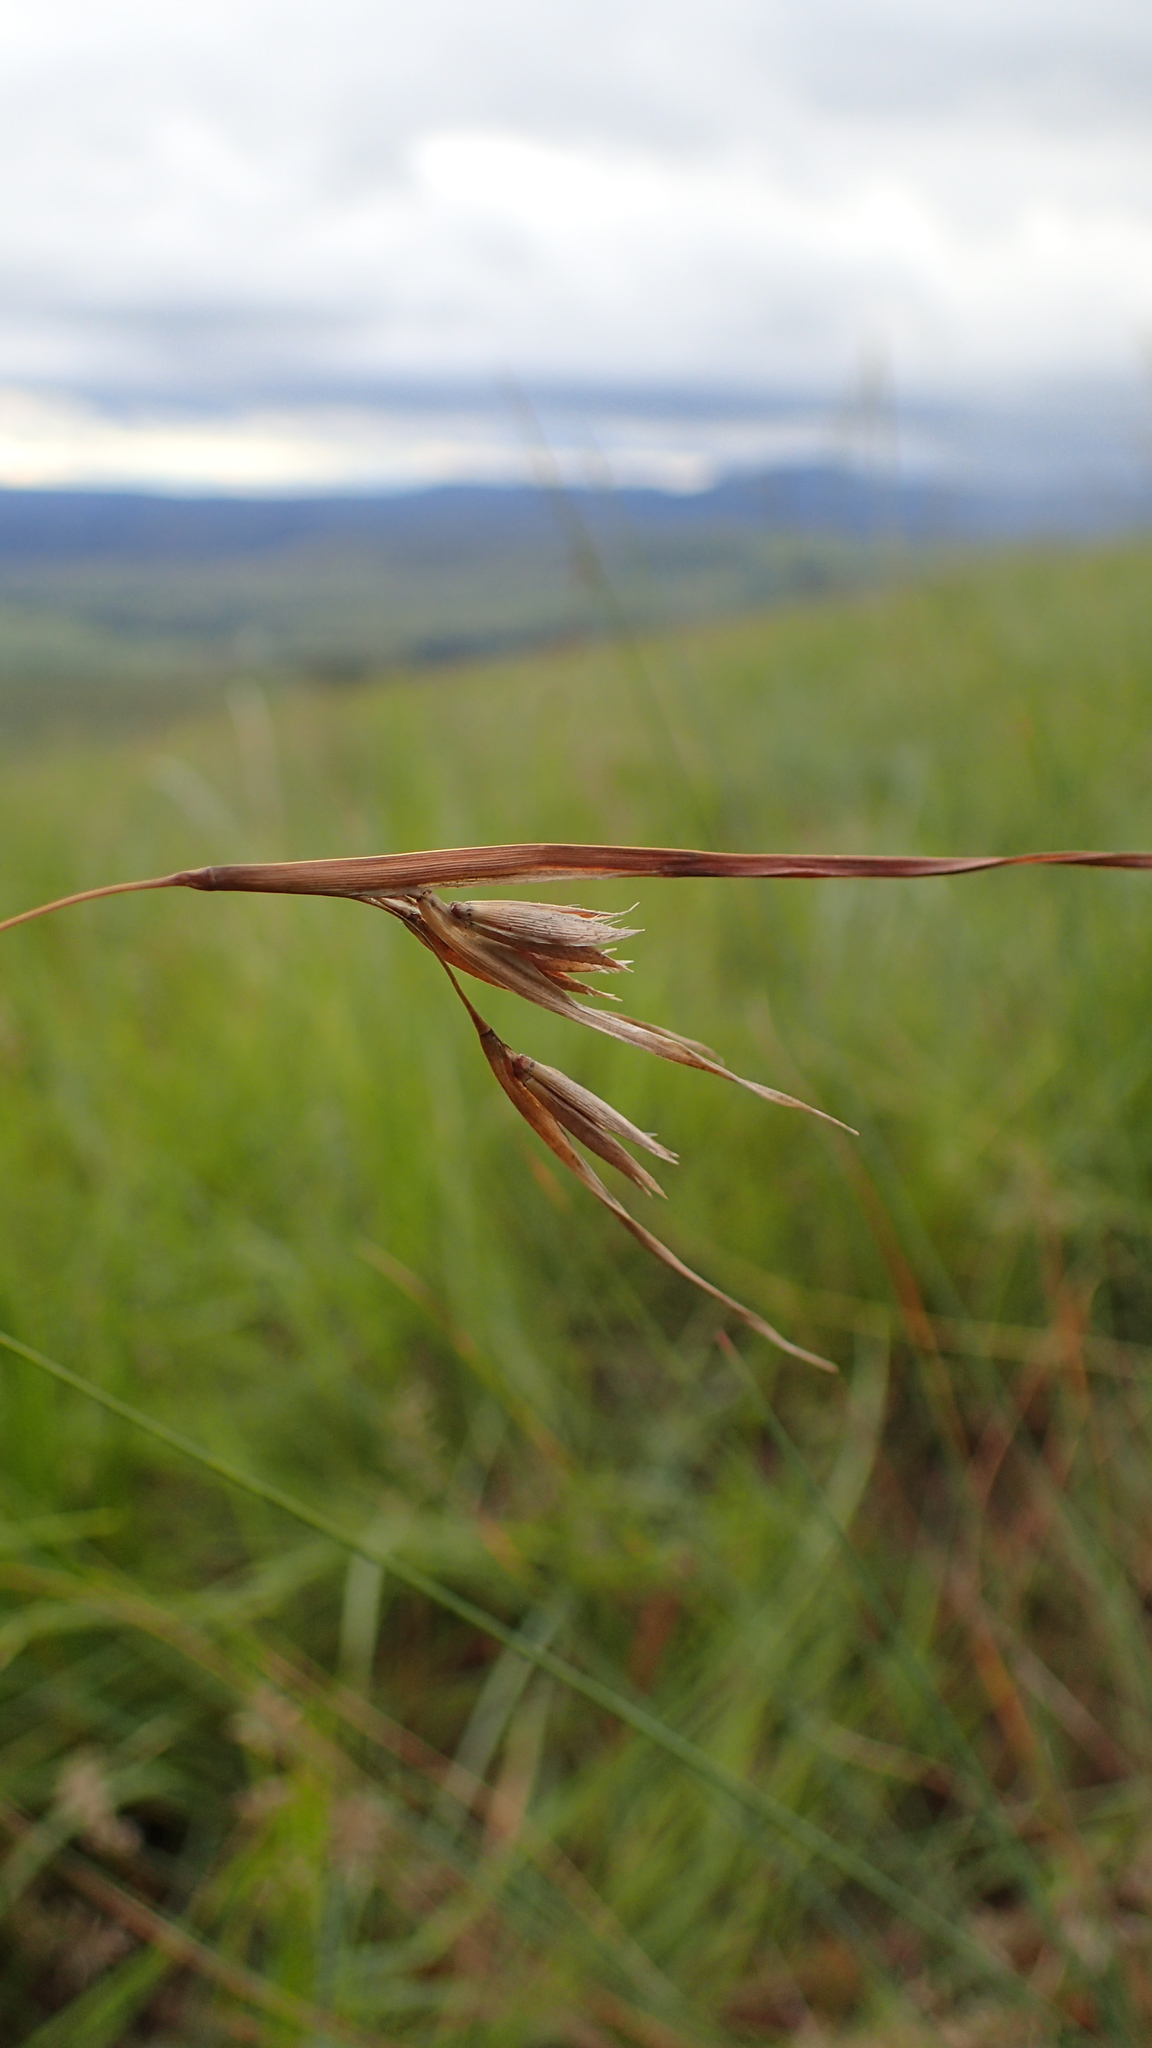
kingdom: Plantae
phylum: Tracheophyta
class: Liliopsida
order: Poales
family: Poaceae
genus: Themeda
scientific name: Themeda triandra
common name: Kangaroo grass
